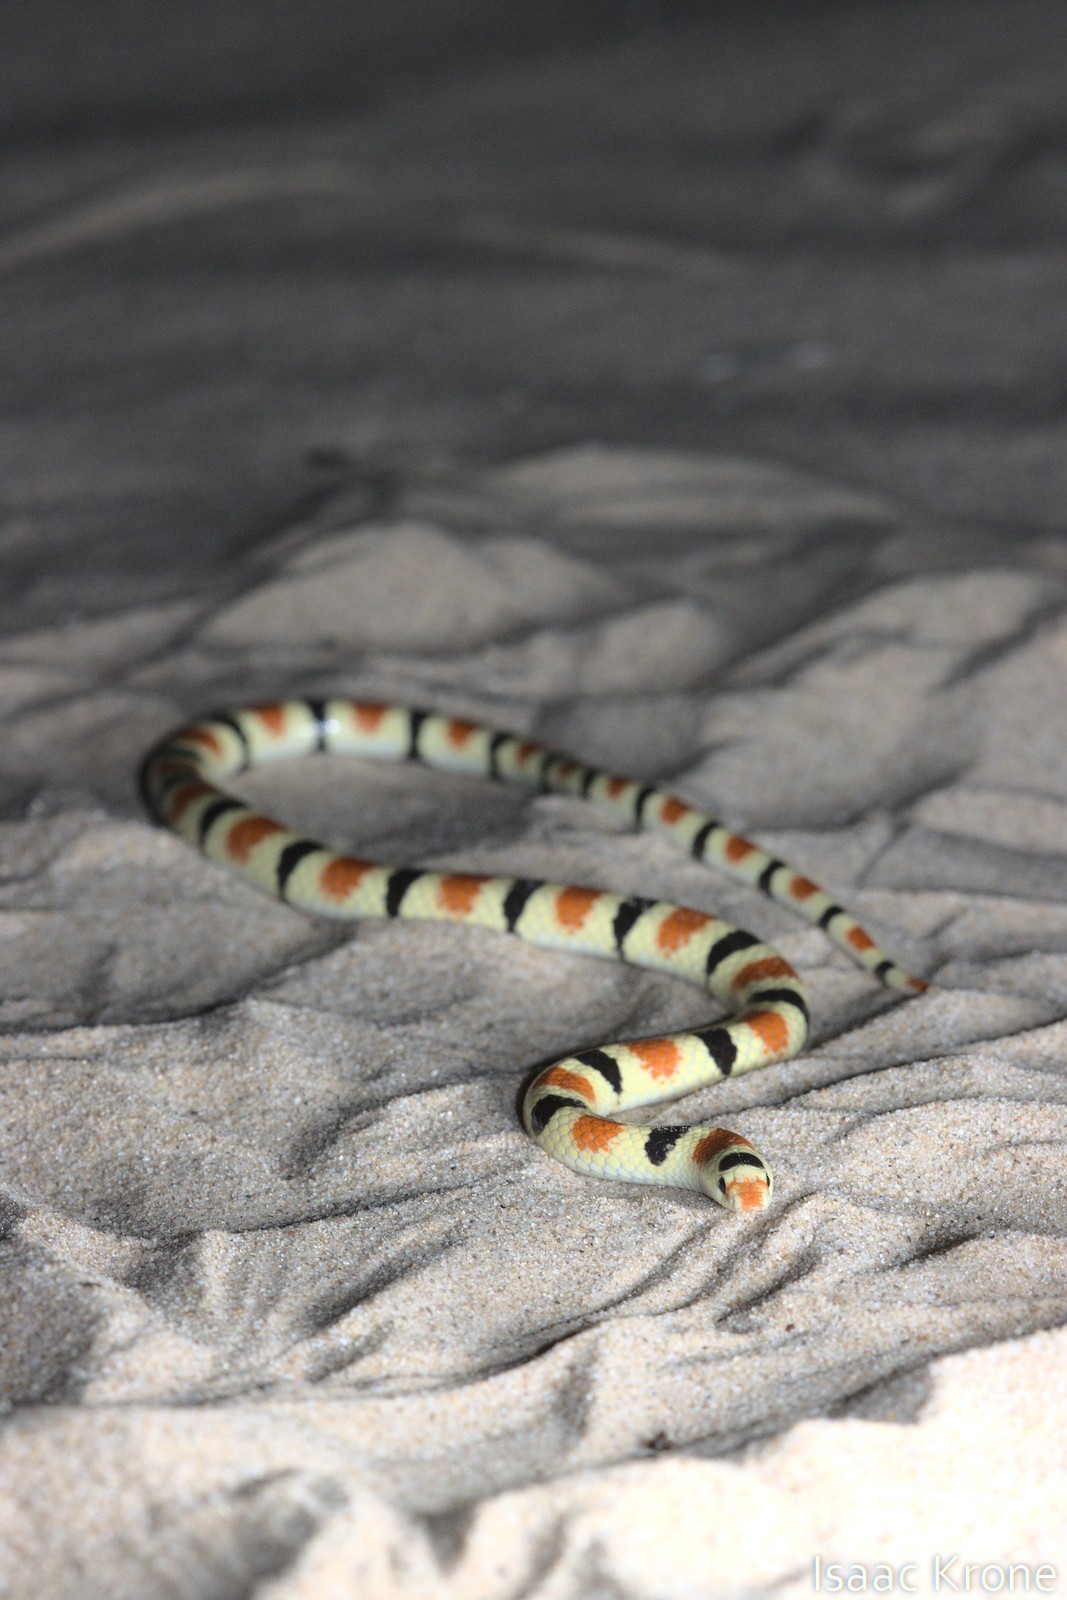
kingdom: Animalia
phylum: Chordata
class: Squamata
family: Colubridae
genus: Sonora
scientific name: Sonora annulata
